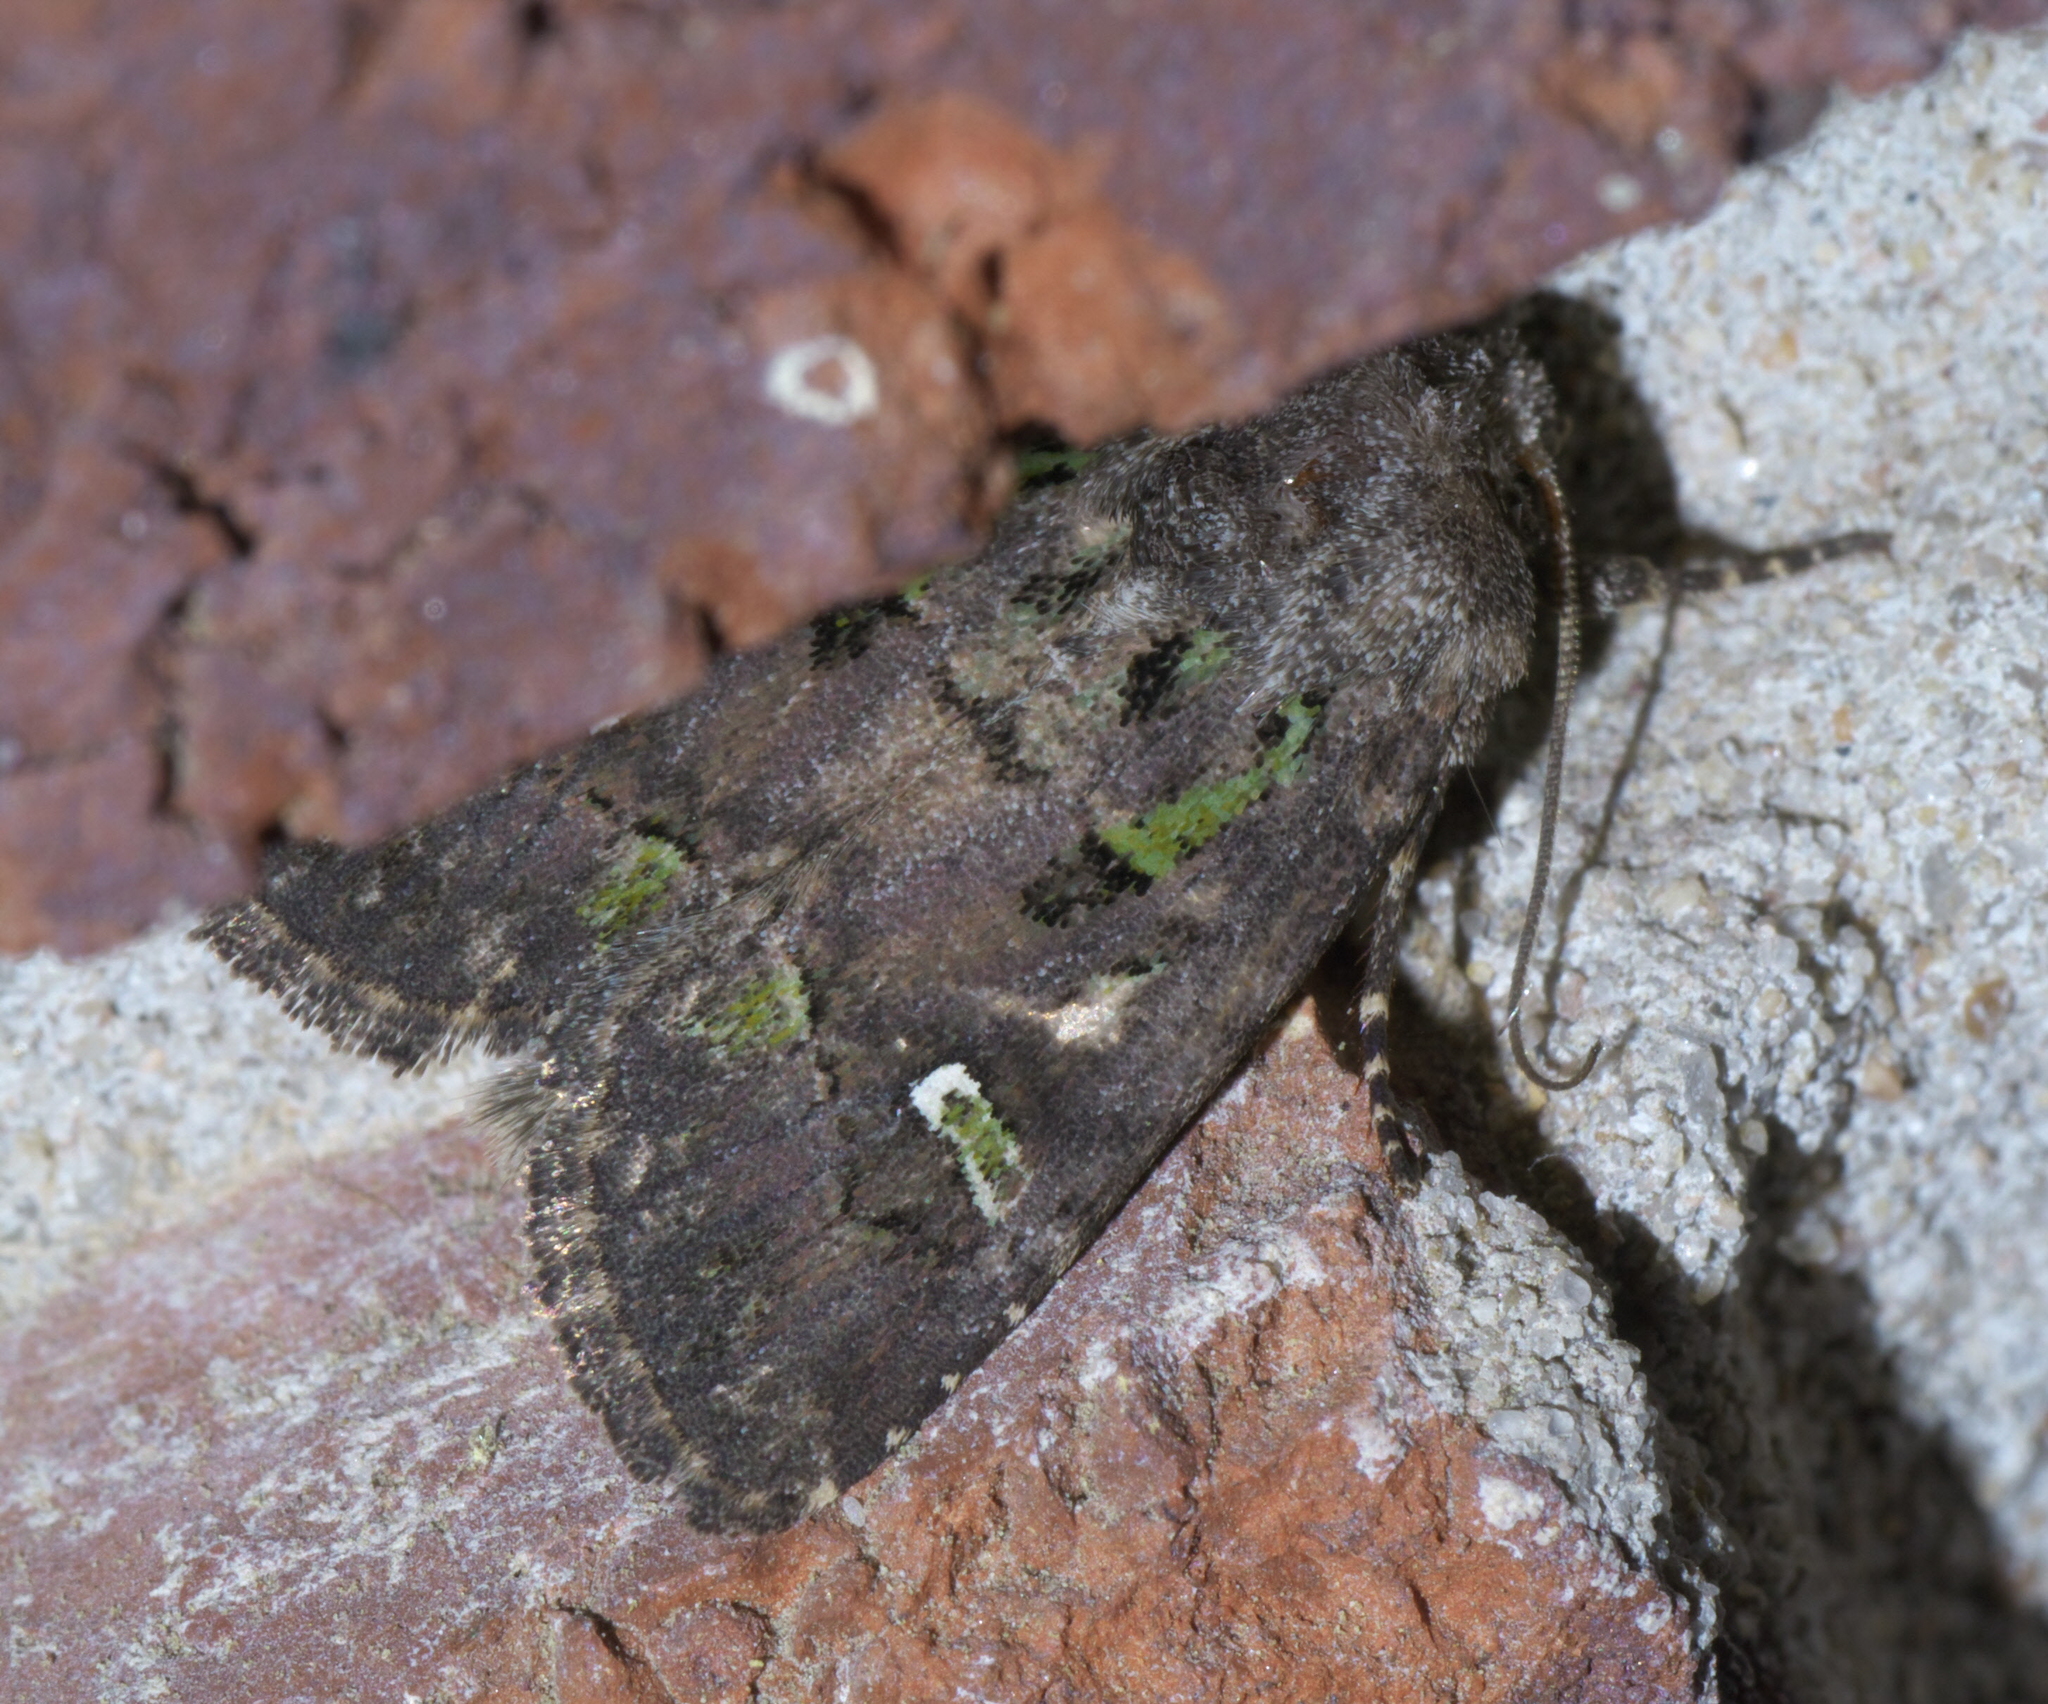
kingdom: Animalia
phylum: Arthropoda
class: Insecta
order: Lepidoptera
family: Noctuidae
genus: Lacinipolia
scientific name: Lacinipolia renigera
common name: Kidney-spotted minor
